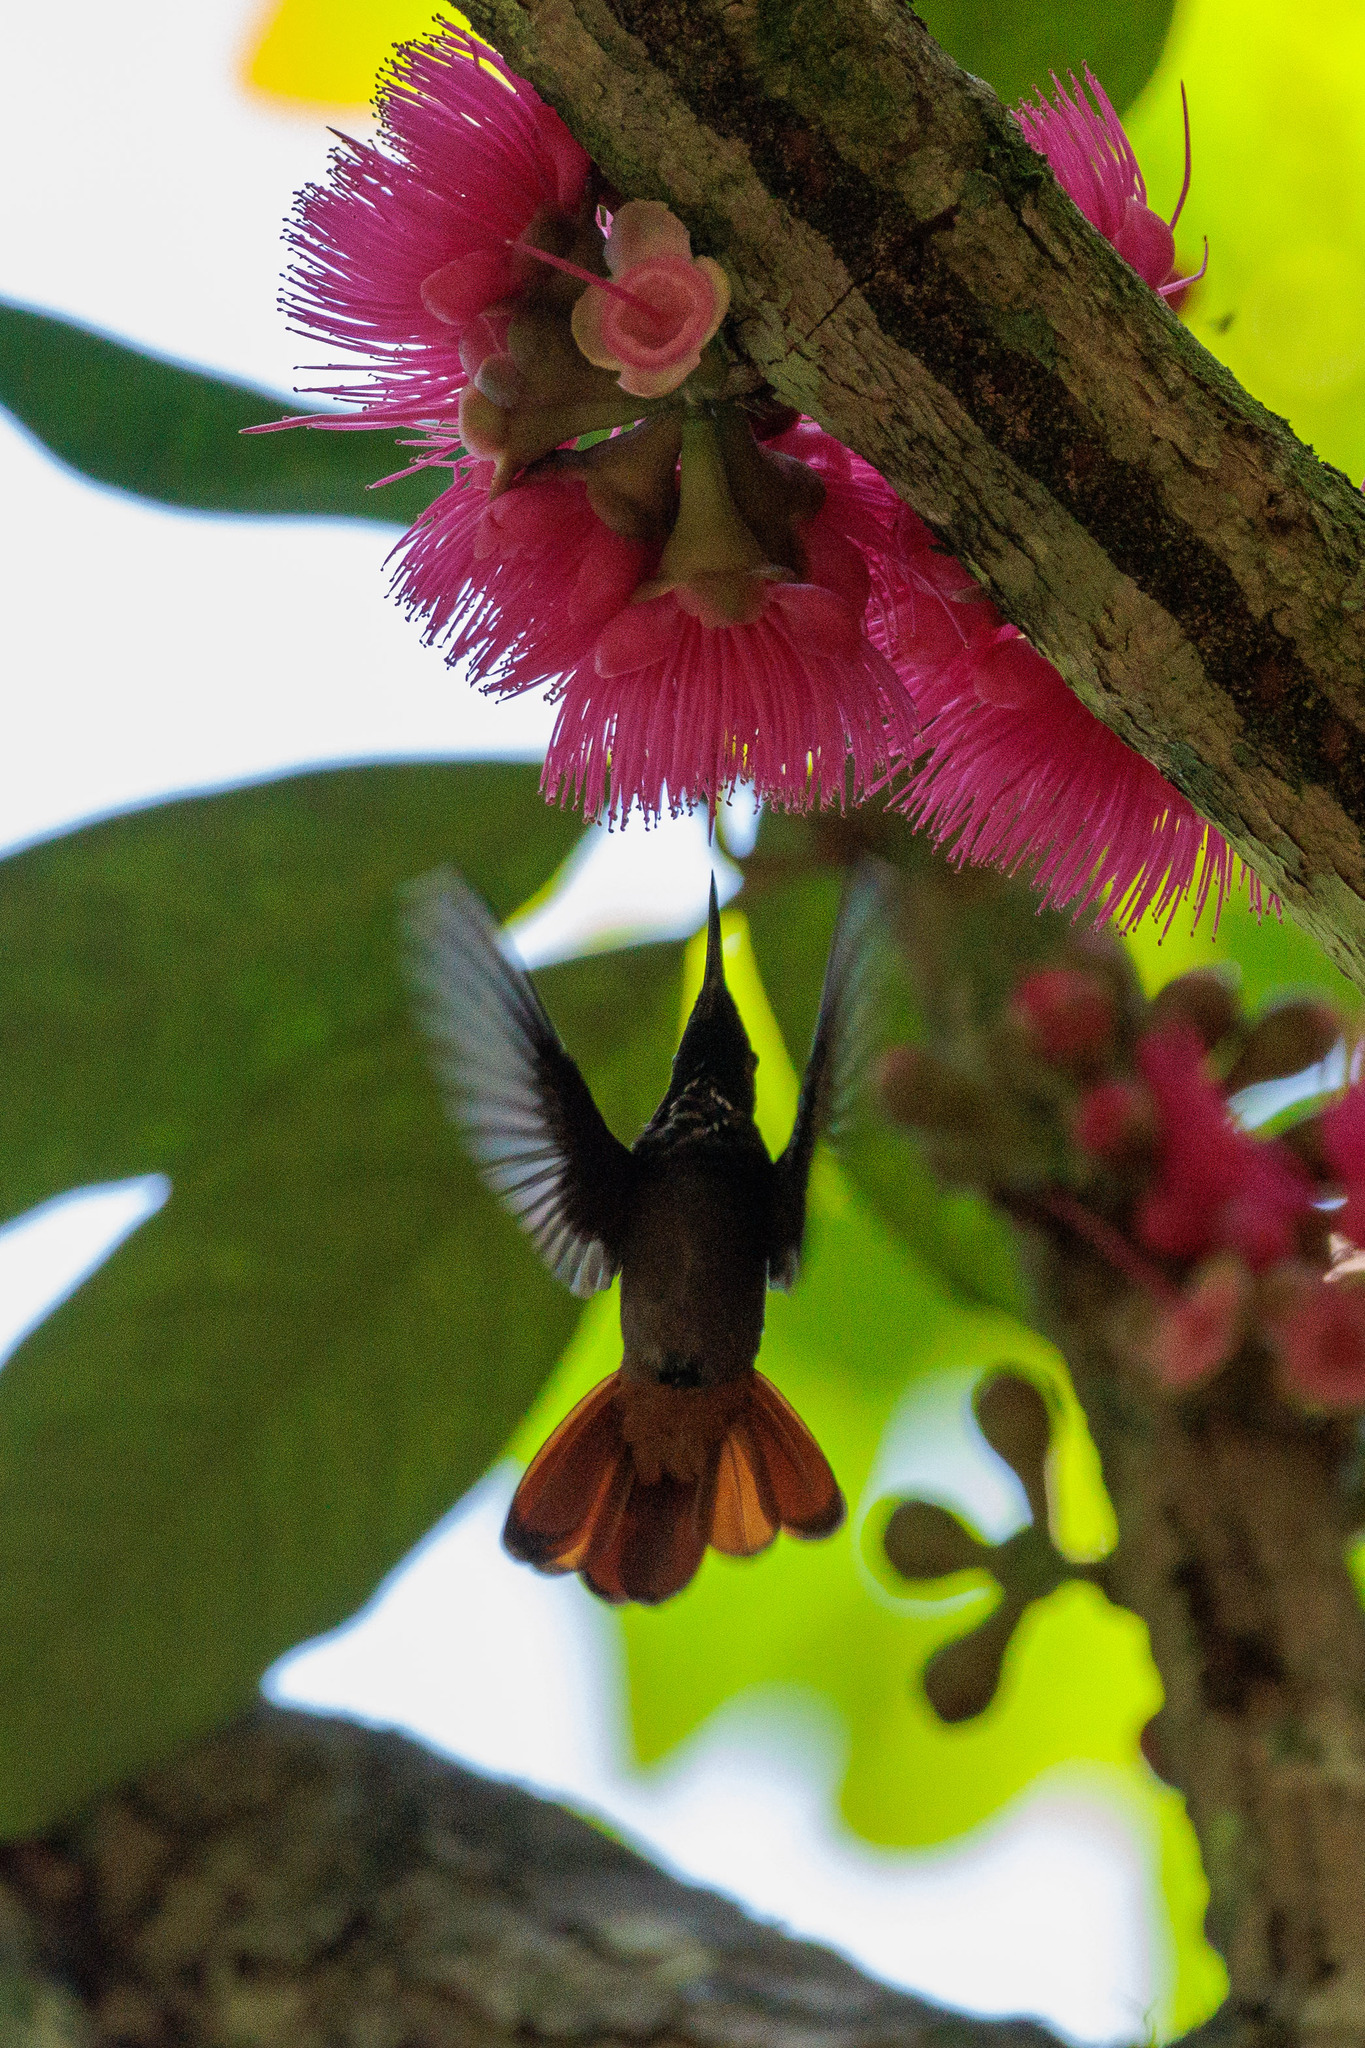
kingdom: Animalia
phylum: Chordata
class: Aves
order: Apodiformes
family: Trochilidae
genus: Chrysolampis
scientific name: Chrysolampis mosquitus
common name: Ruby-topaz hummingbird
